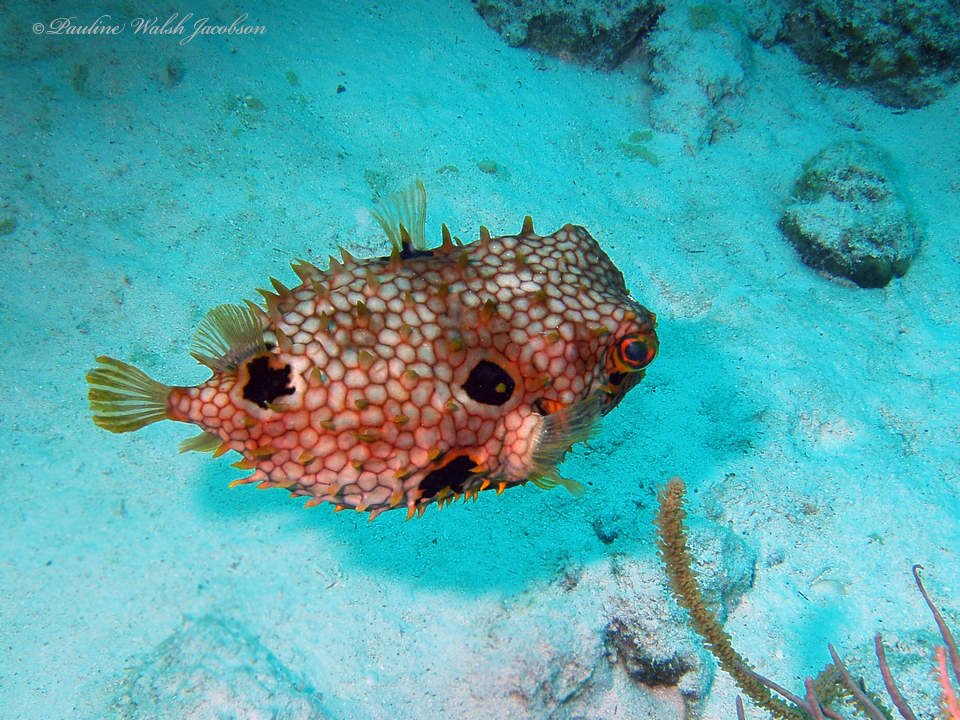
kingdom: Animalia
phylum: Chordata
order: Tetraodontiformes
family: Diodontidae
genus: Chilomycterus
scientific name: Chilomycterus antillarum
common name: Web burrfish
